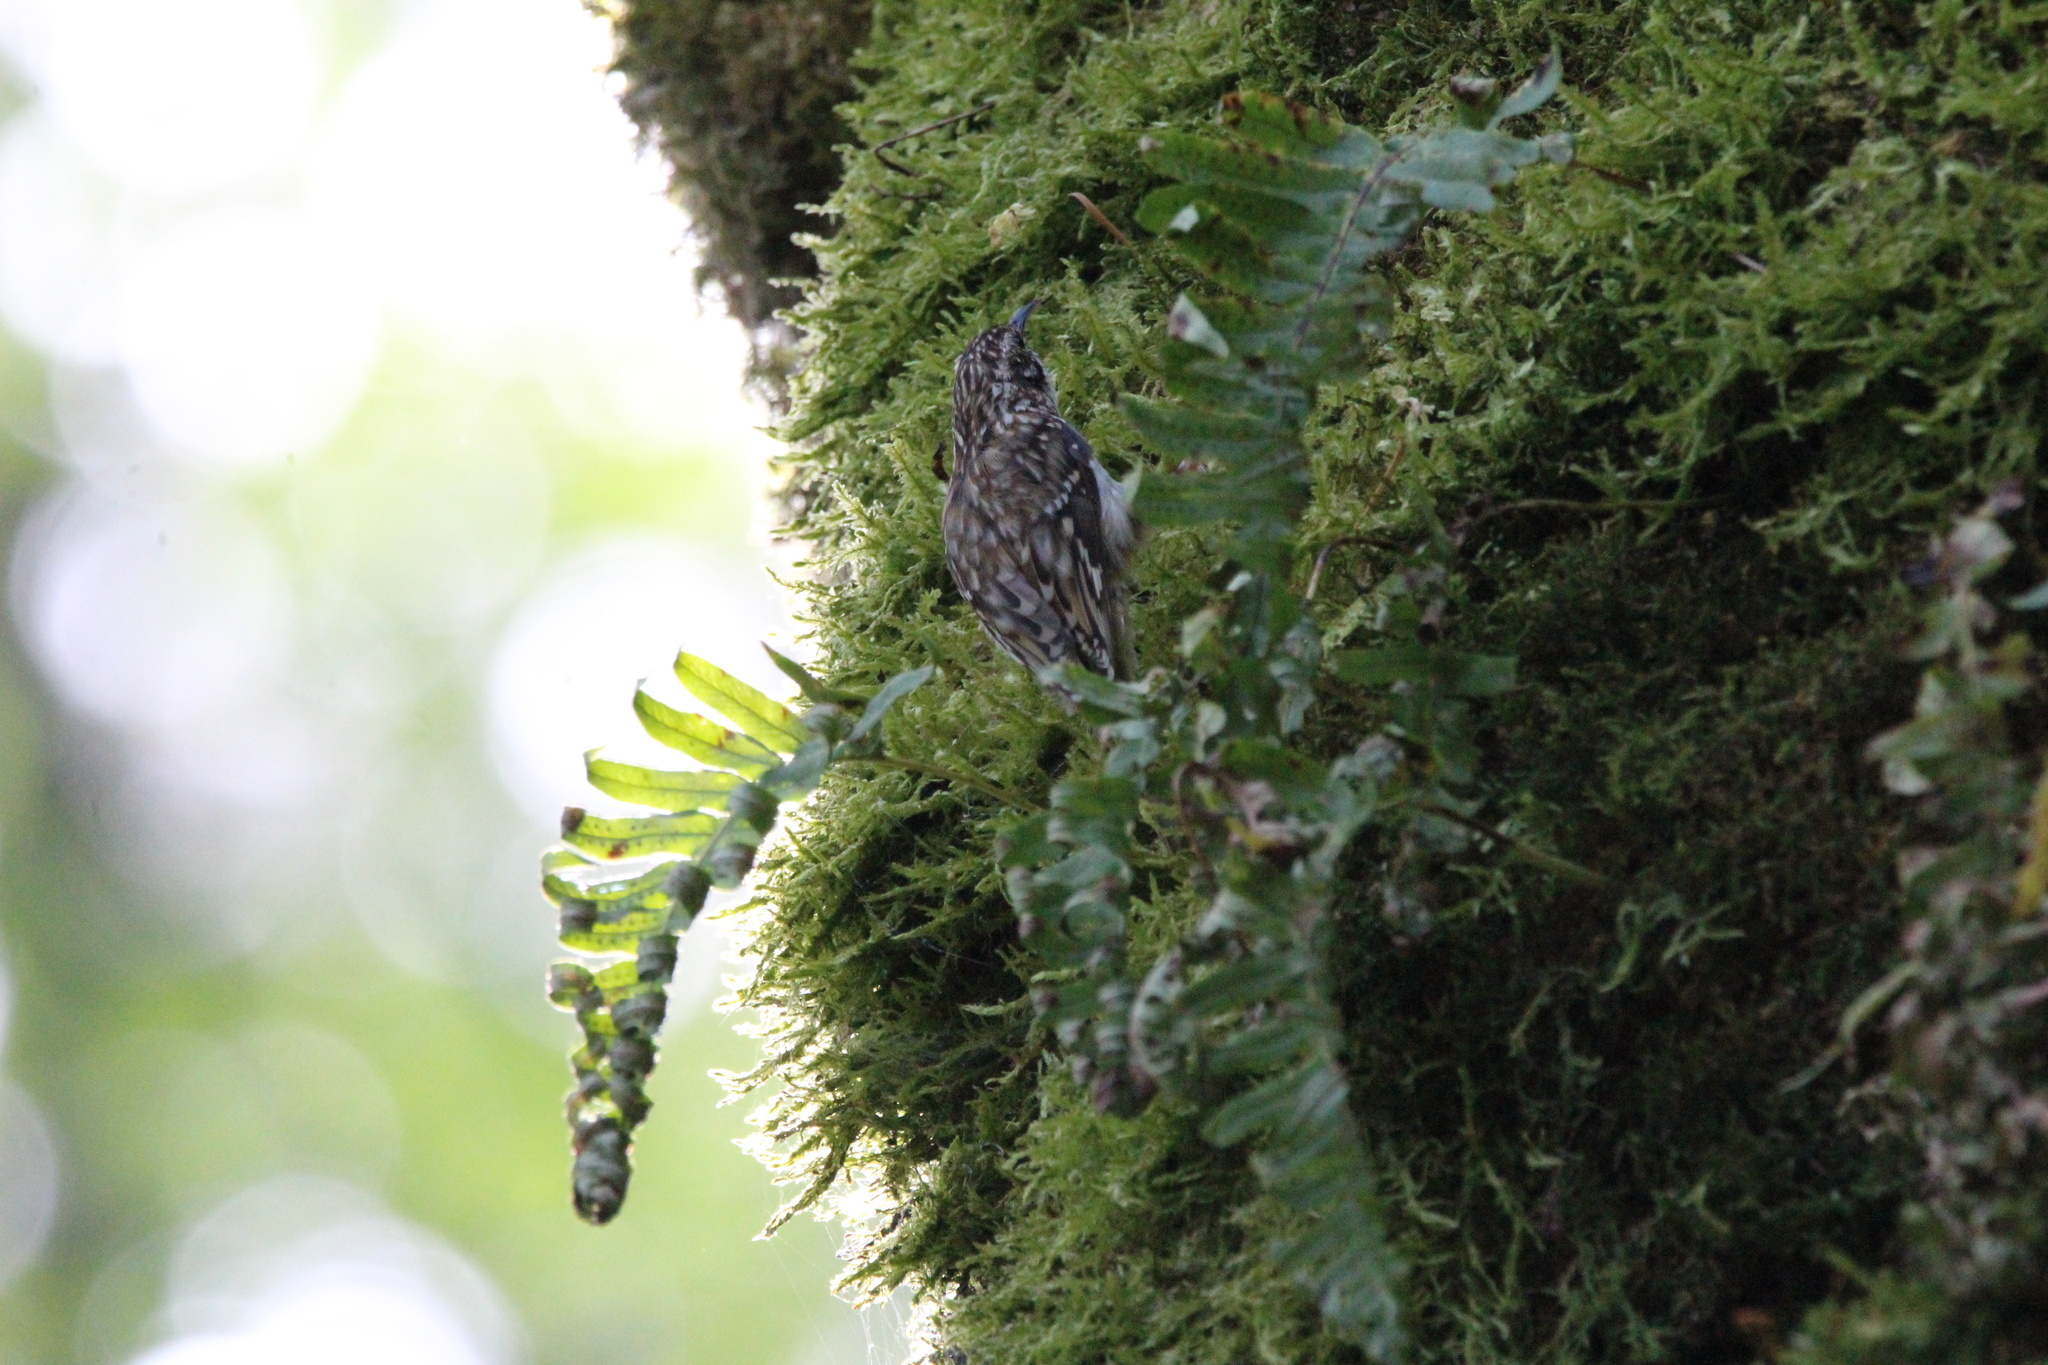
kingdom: Animalia
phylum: Chordata
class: Aves
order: Passeriformes
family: Certhiidae
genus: Certhia
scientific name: Certhia americana
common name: Brown creeper
